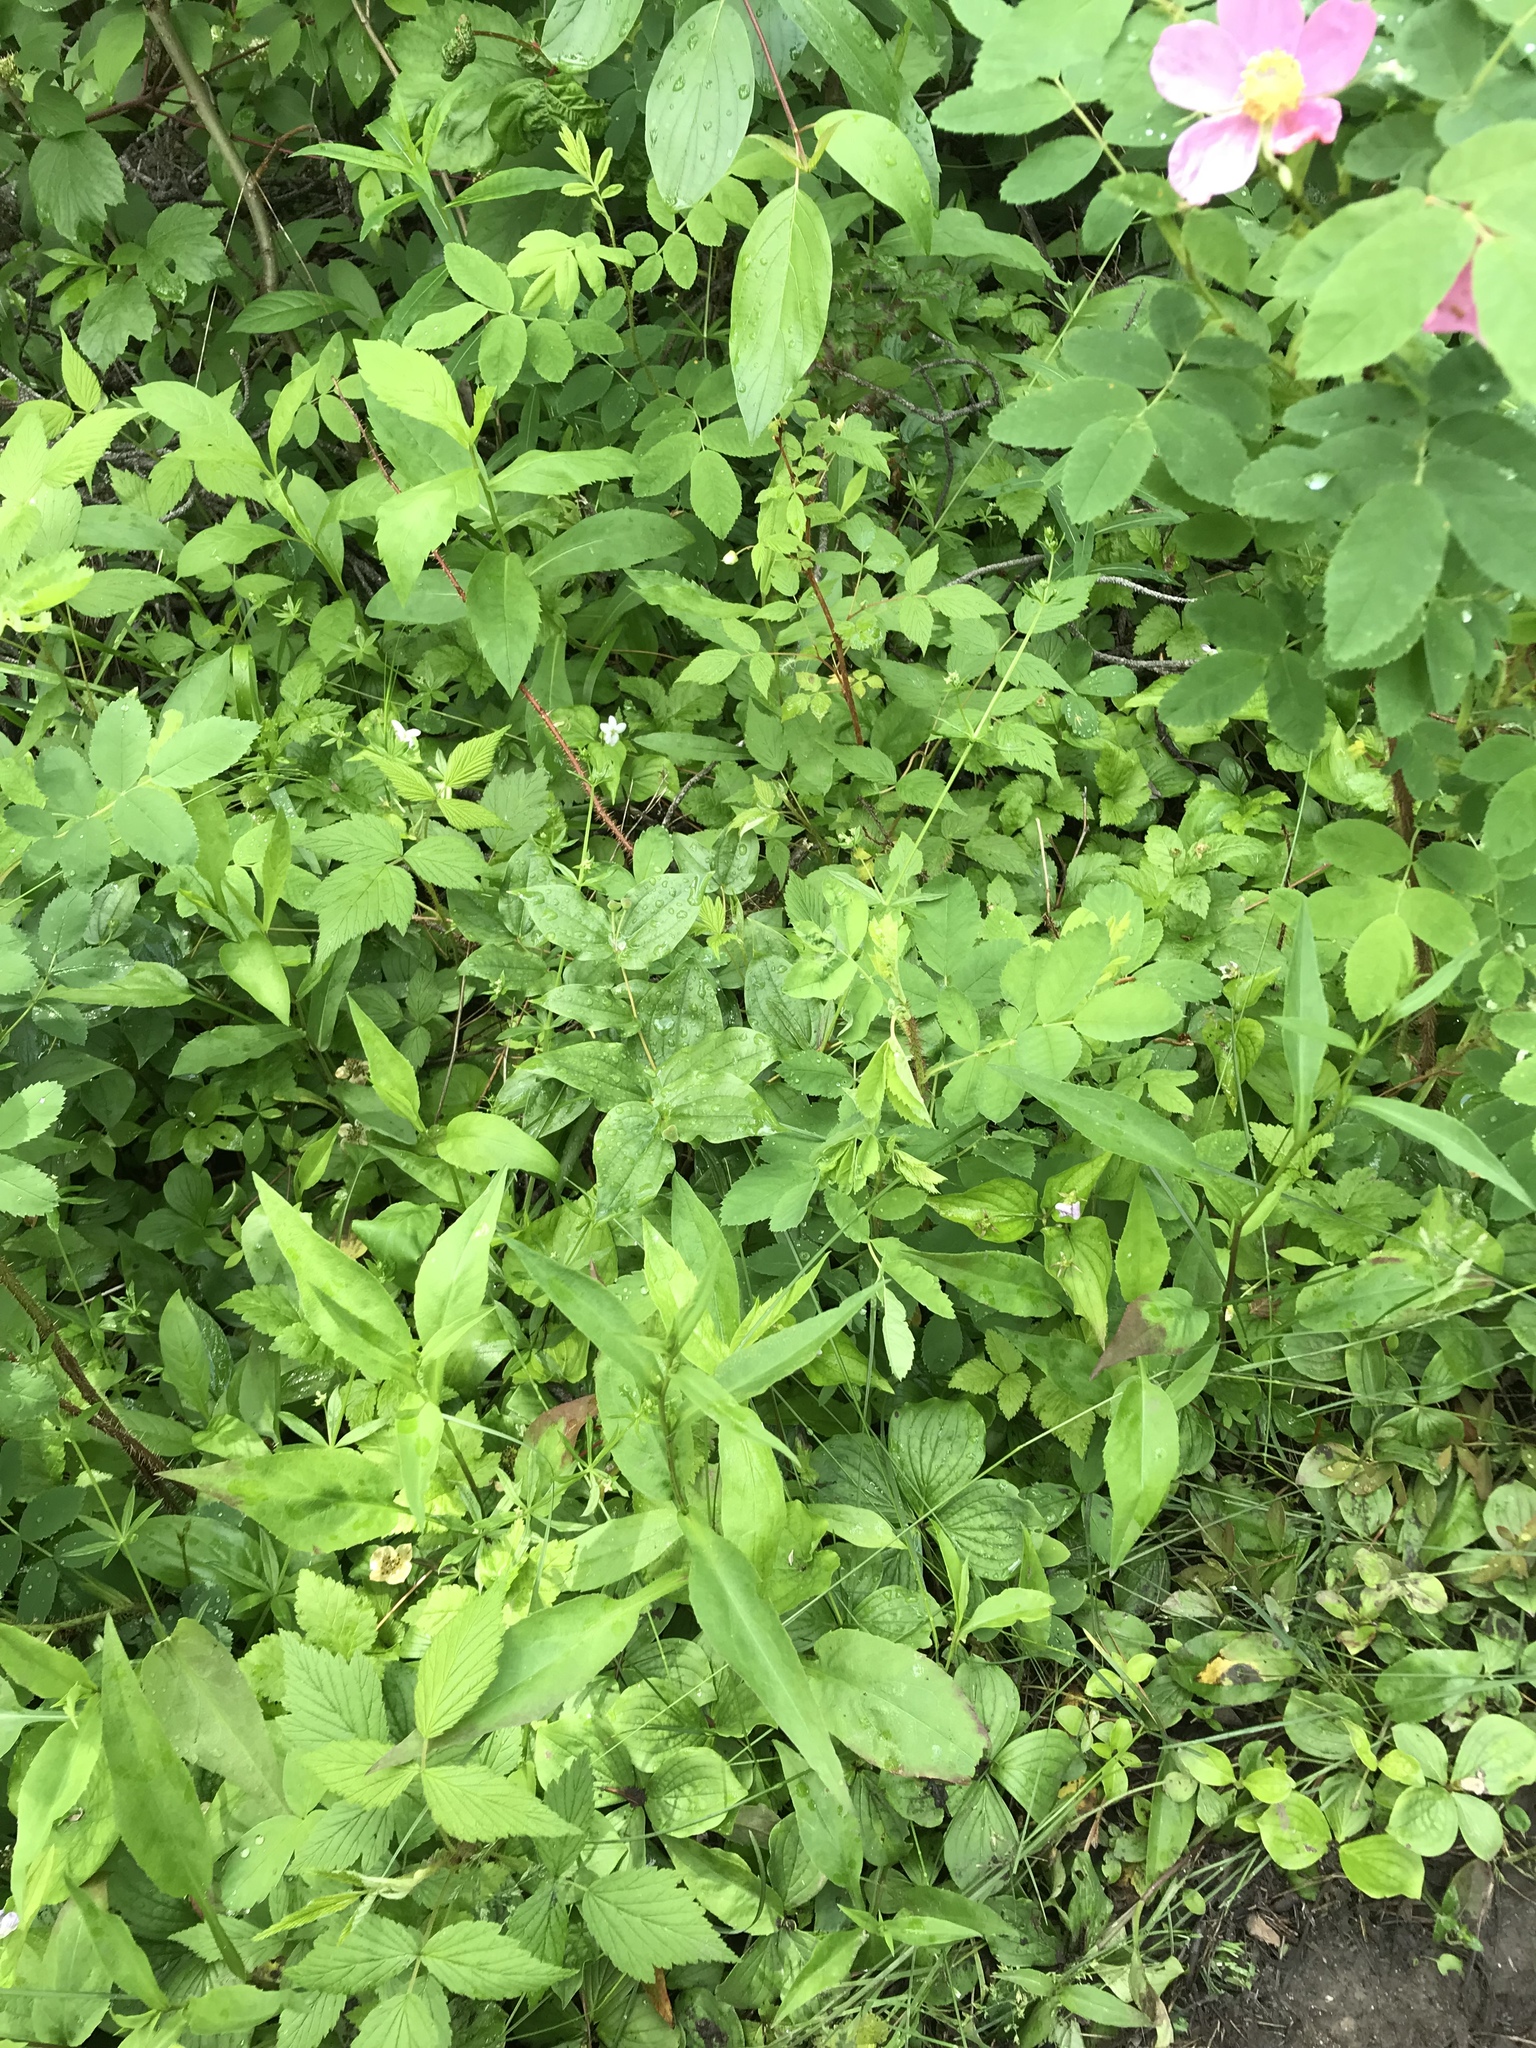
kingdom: Plantae
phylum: Tracheophyta
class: Magnoliopsida
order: Malpighiales
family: Violaceae
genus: Viola
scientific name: Viola canadensis
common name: Canada violet
